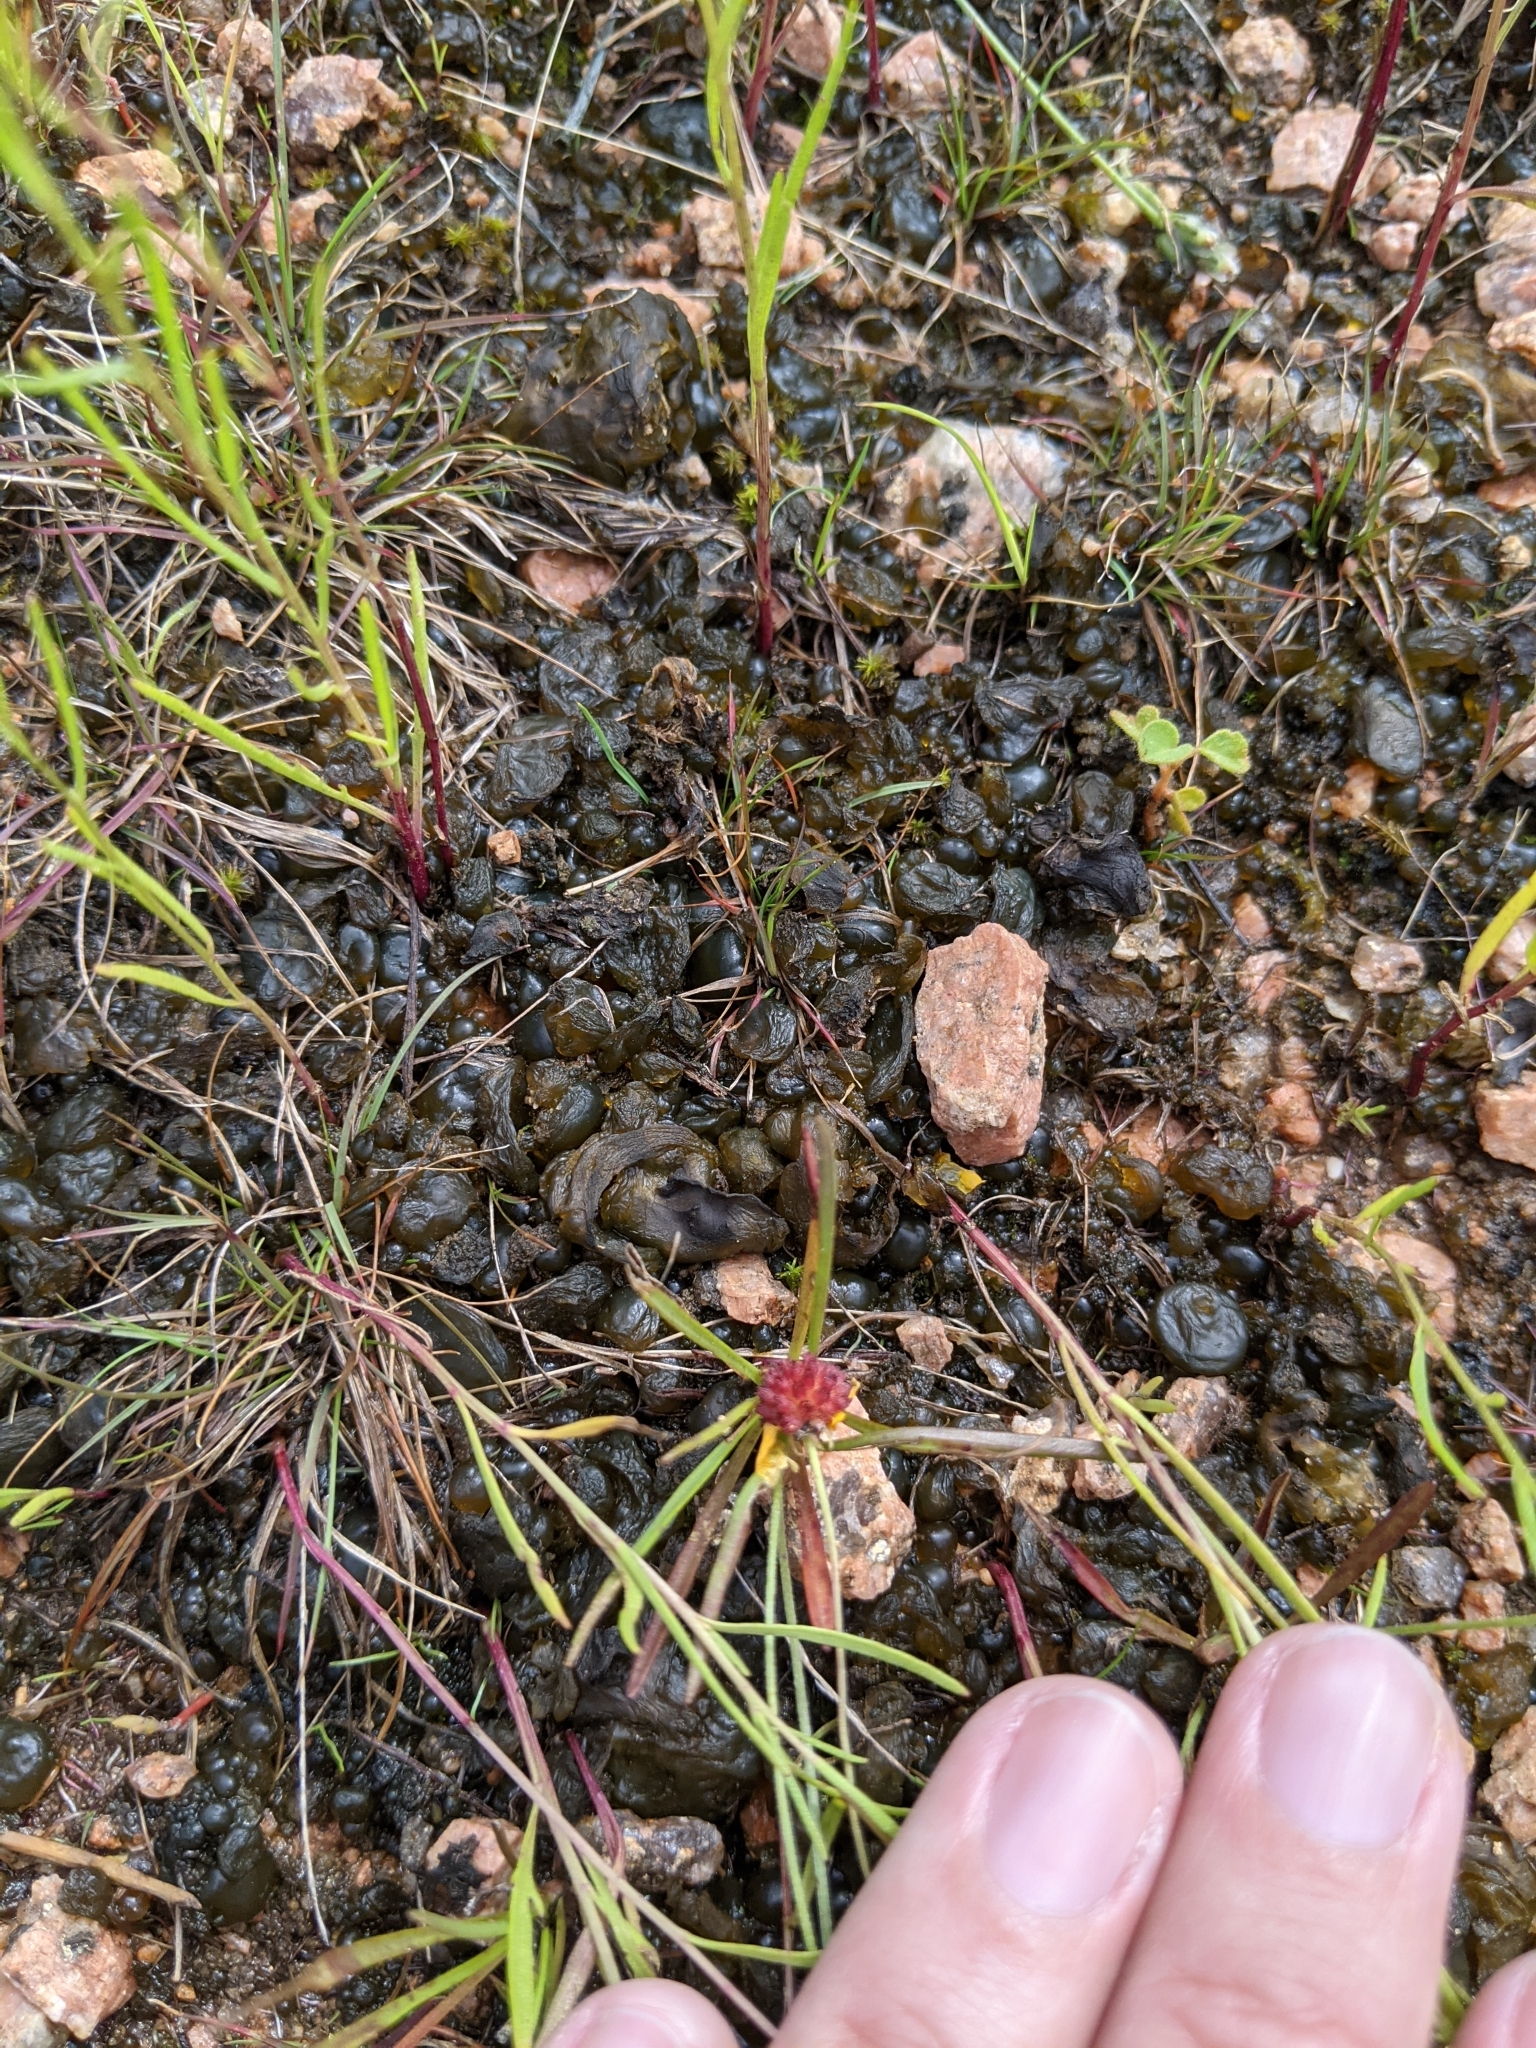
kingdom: Bacteria
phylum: Cyanobacteria
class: Cyanobacteriia
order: Cyanobacteriales
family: Nostocaceae
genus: Nostoc
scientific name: Nostoc commune
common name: Star jelly
